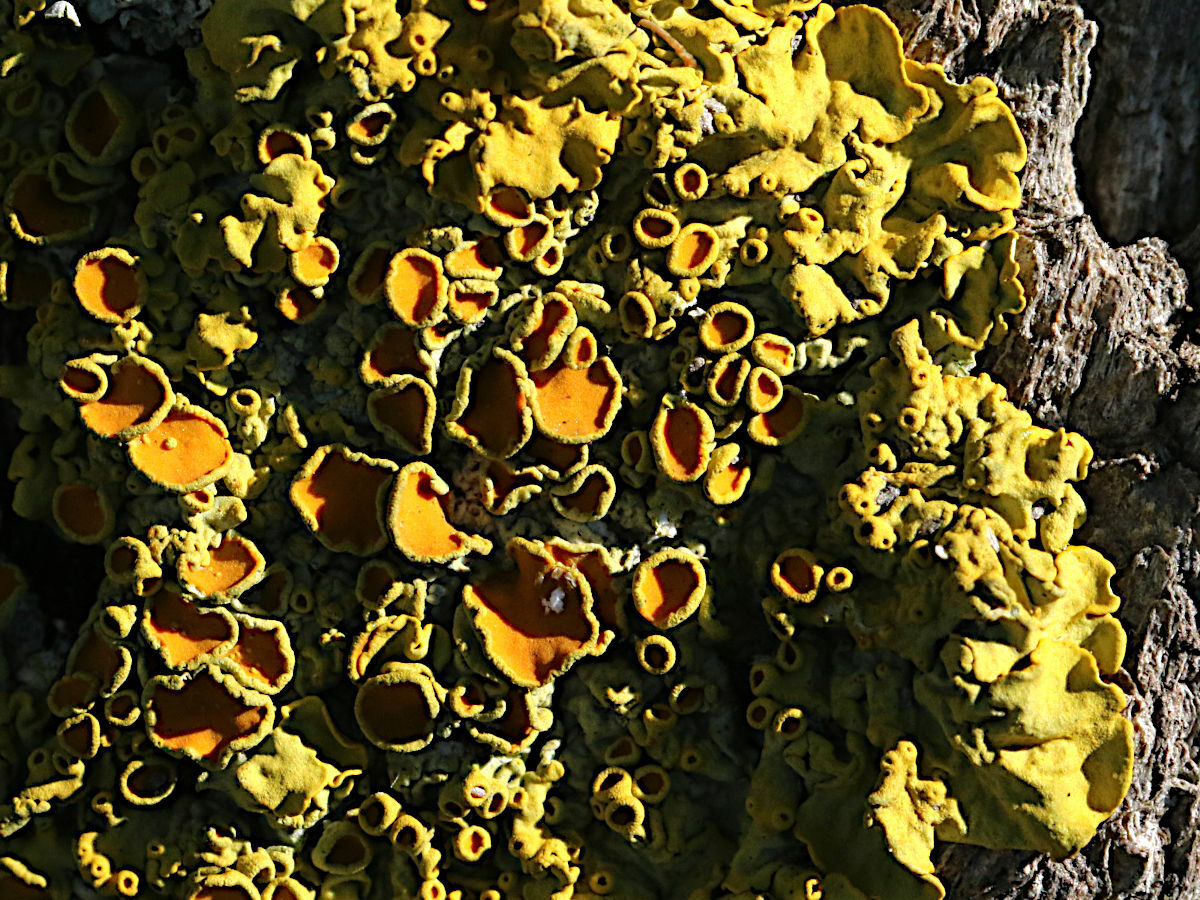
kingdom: Fungi
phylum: Ascomycota
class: Lecanoromycetes
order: Teloschistales
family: Teloschistaceae
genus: Xanthoria
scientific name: Xanthoria parietina
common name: Common orange lichen
